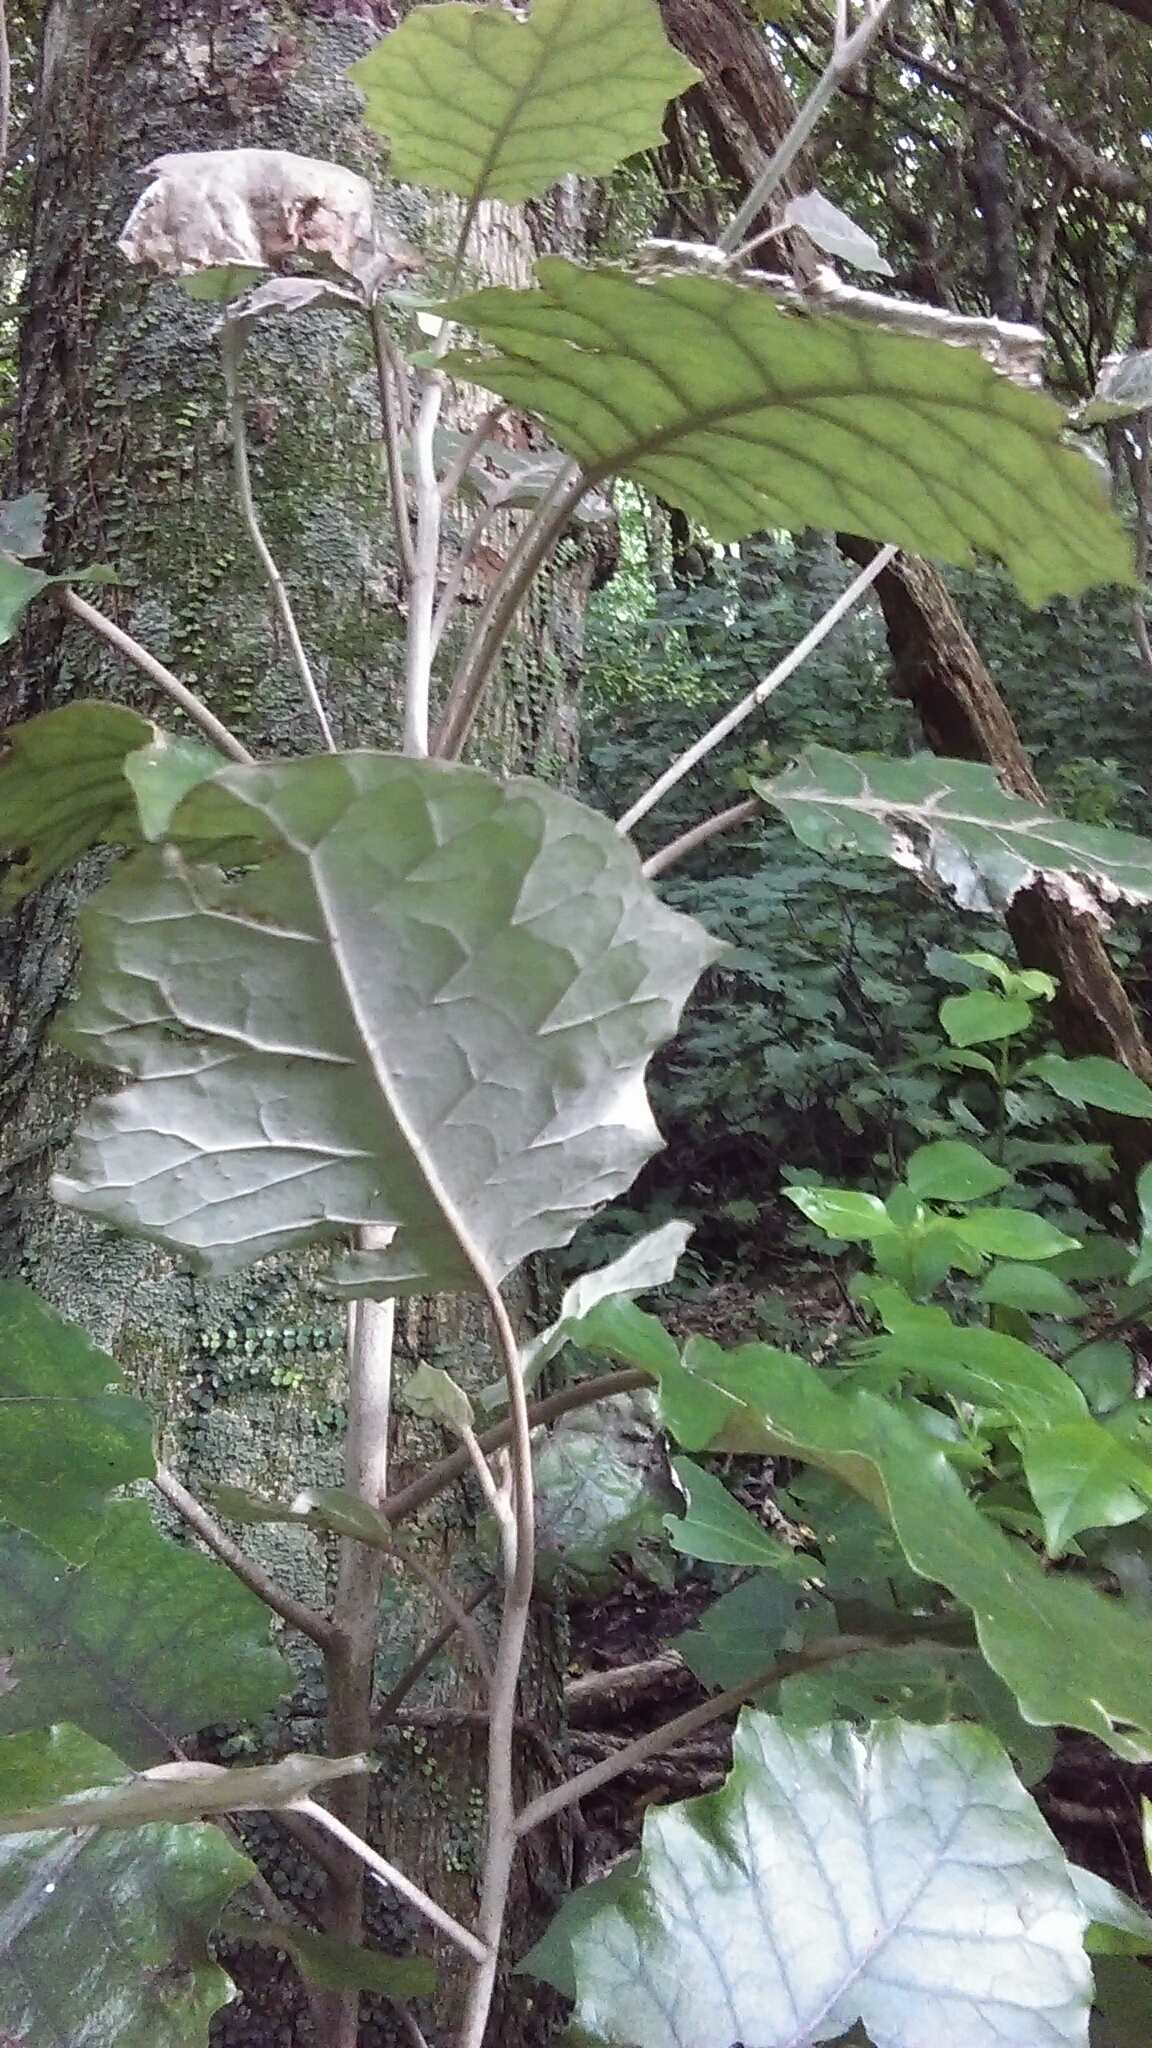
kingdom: Plantae
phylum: Tracheophyta
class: Magnoliopsida
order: Asterales
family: Asteraceae
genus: Brachyglottis
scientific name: Brachyglottis repanda
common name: Hedge ragwort
